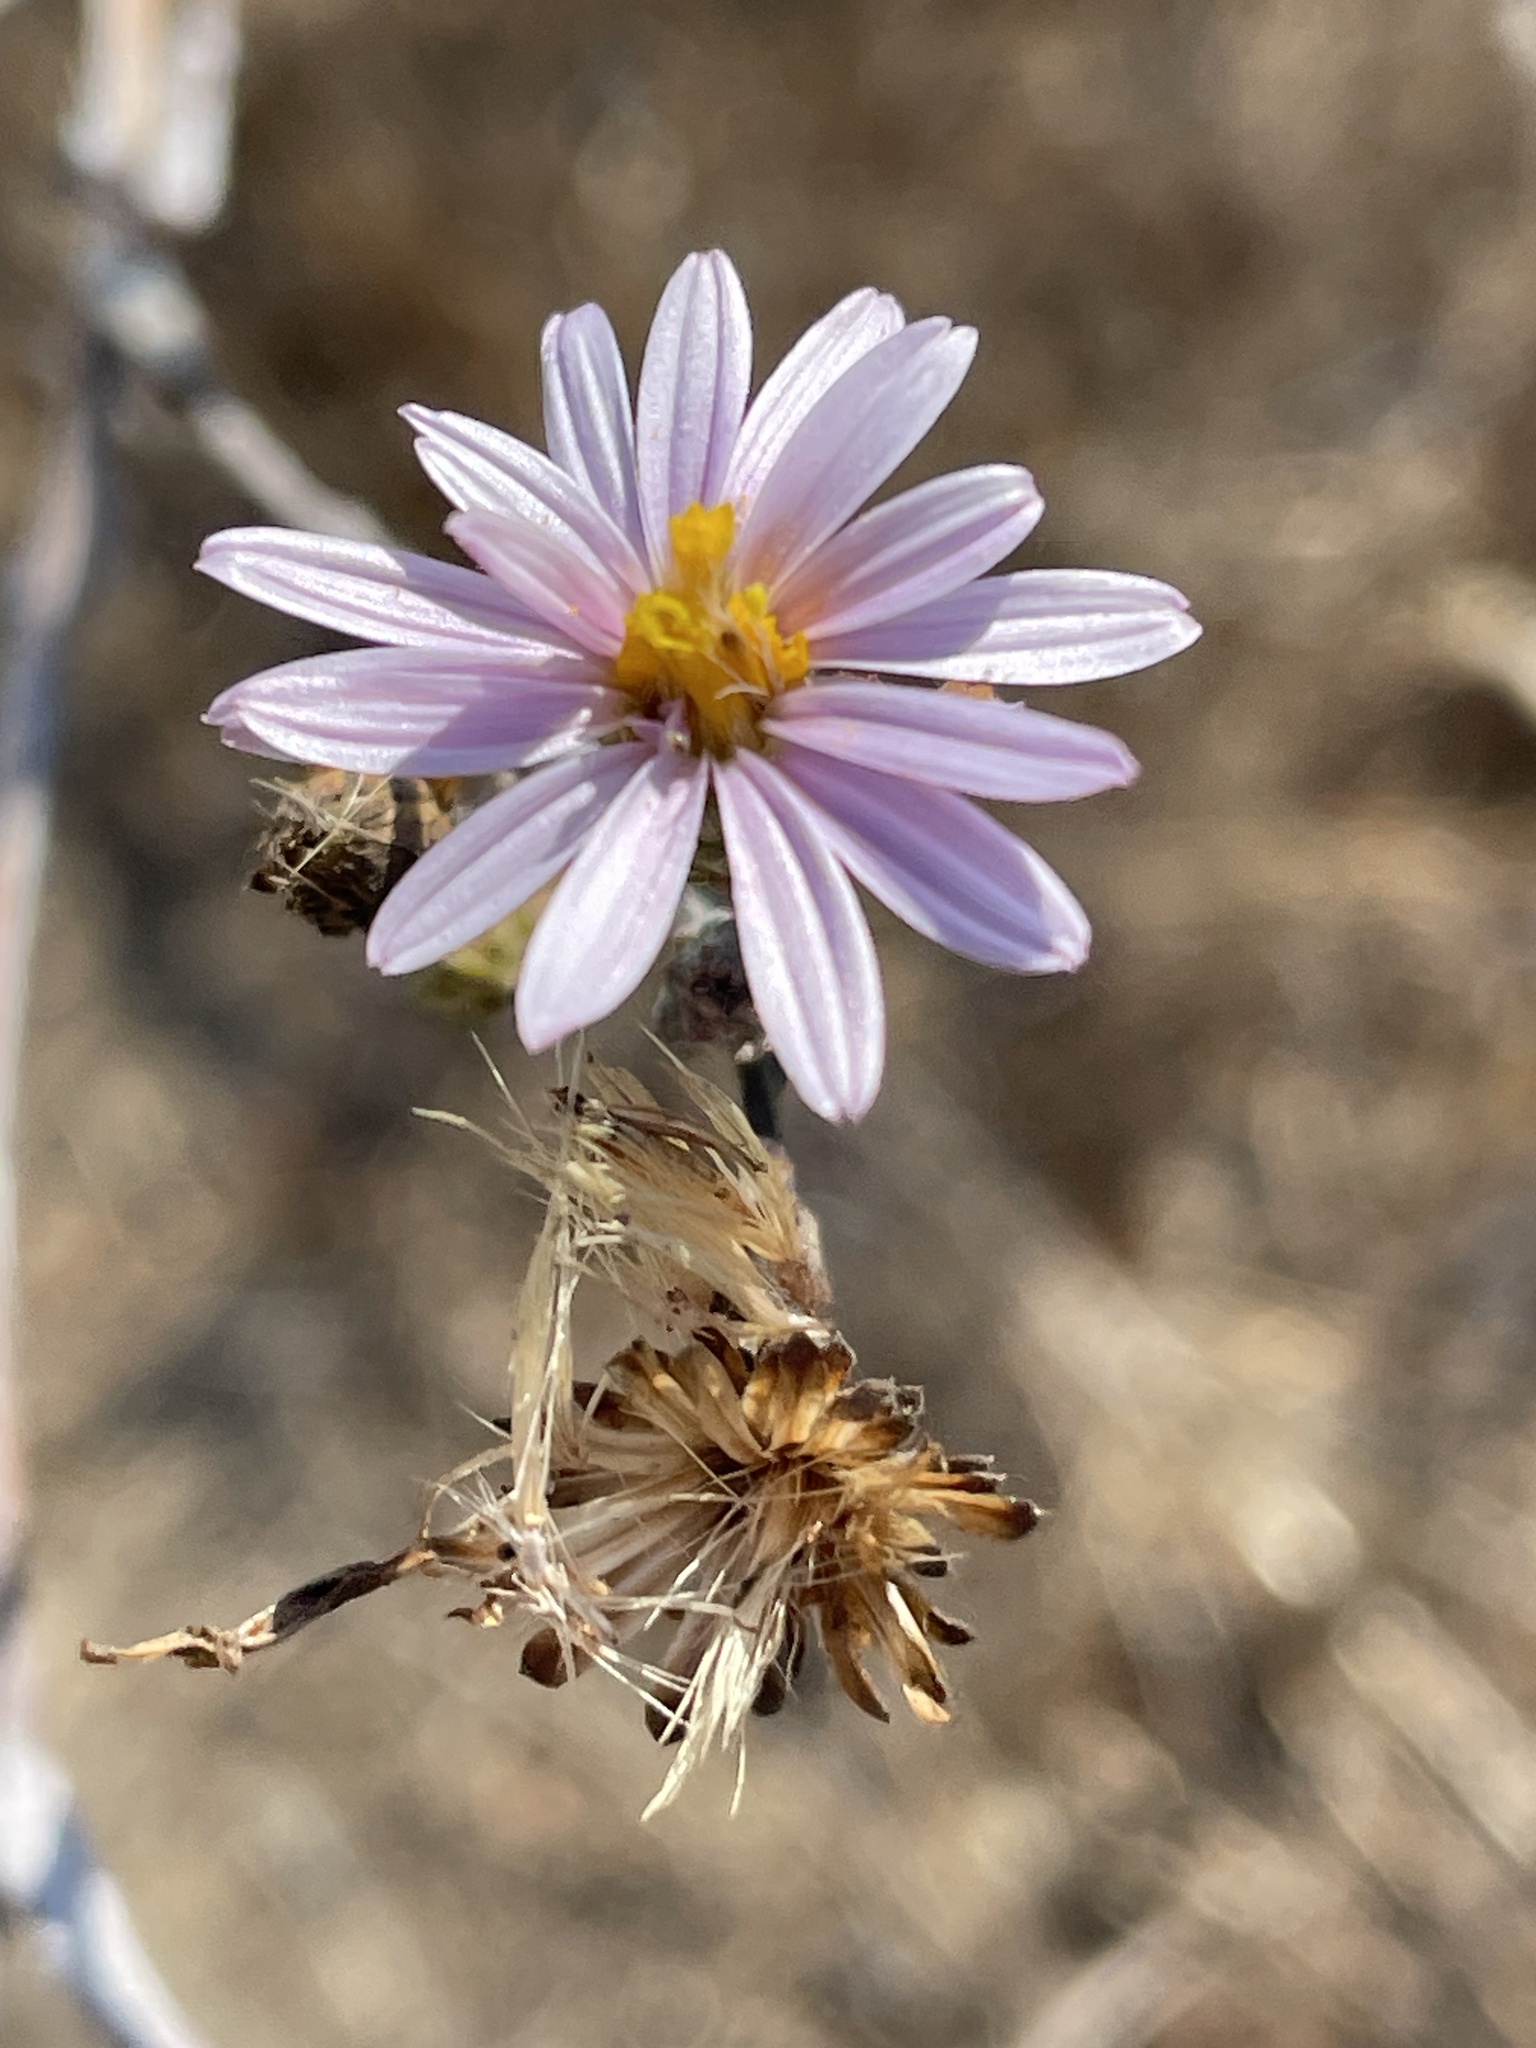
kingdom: Plantae
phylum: Tracheophyta
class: Magnoliopsida
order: Asterales
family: Asteraceae
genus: Corethrogyne
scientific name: Corethrogyne filaginifolia
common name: Sand-aster
